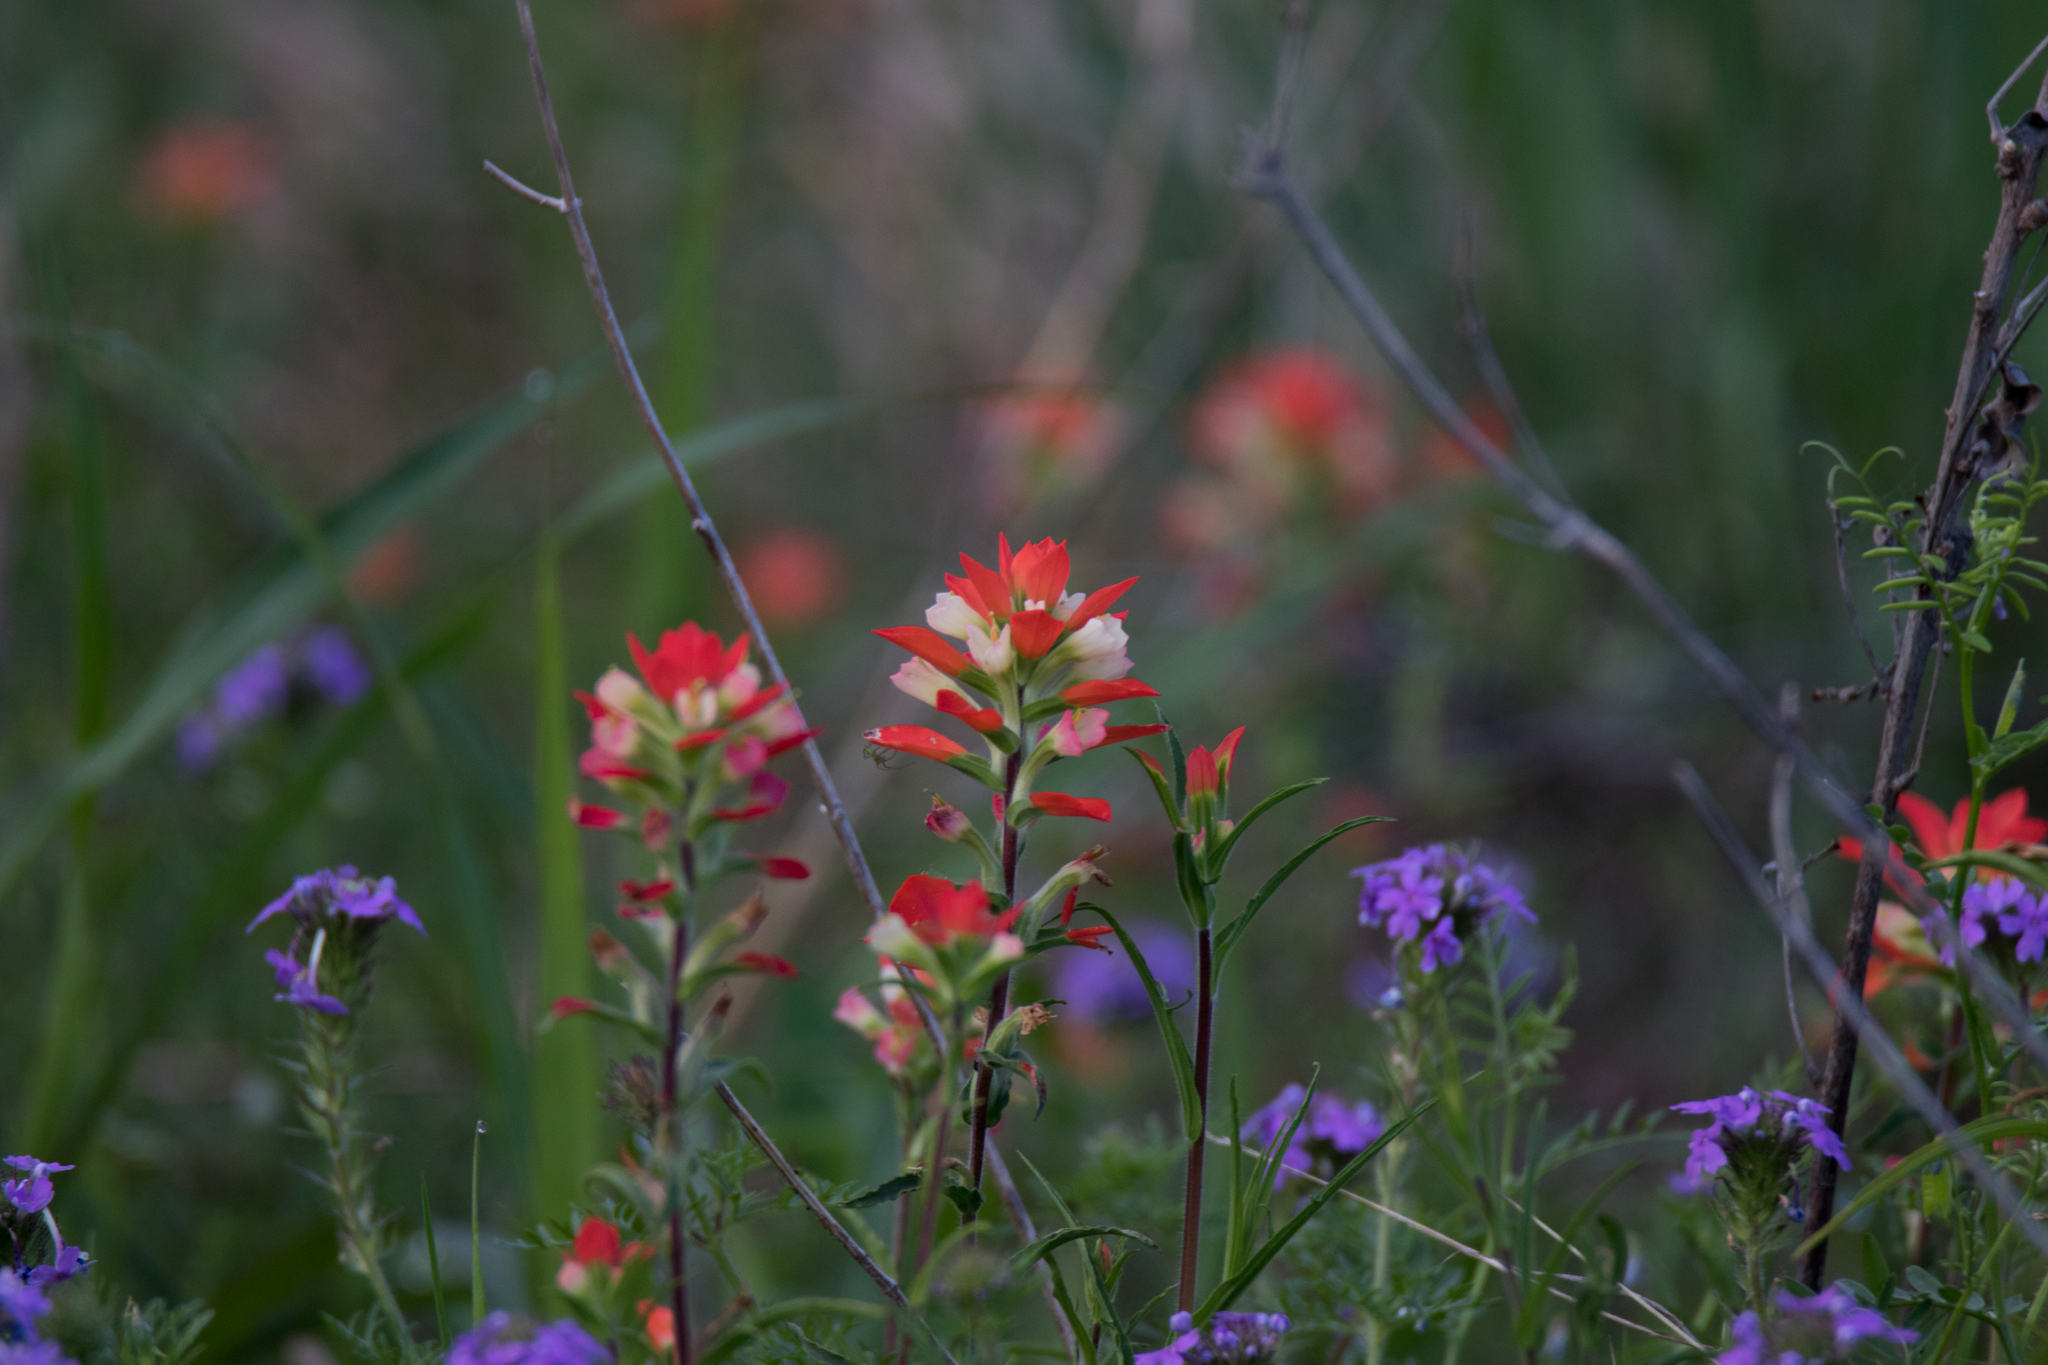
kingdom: Plantae
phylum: Tracheophyta
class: Magnoliopsida
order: Lamiales
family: Orobanchaceae
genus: Castilleja
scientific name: Castilleja indivisa
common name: Texas paintbrush
